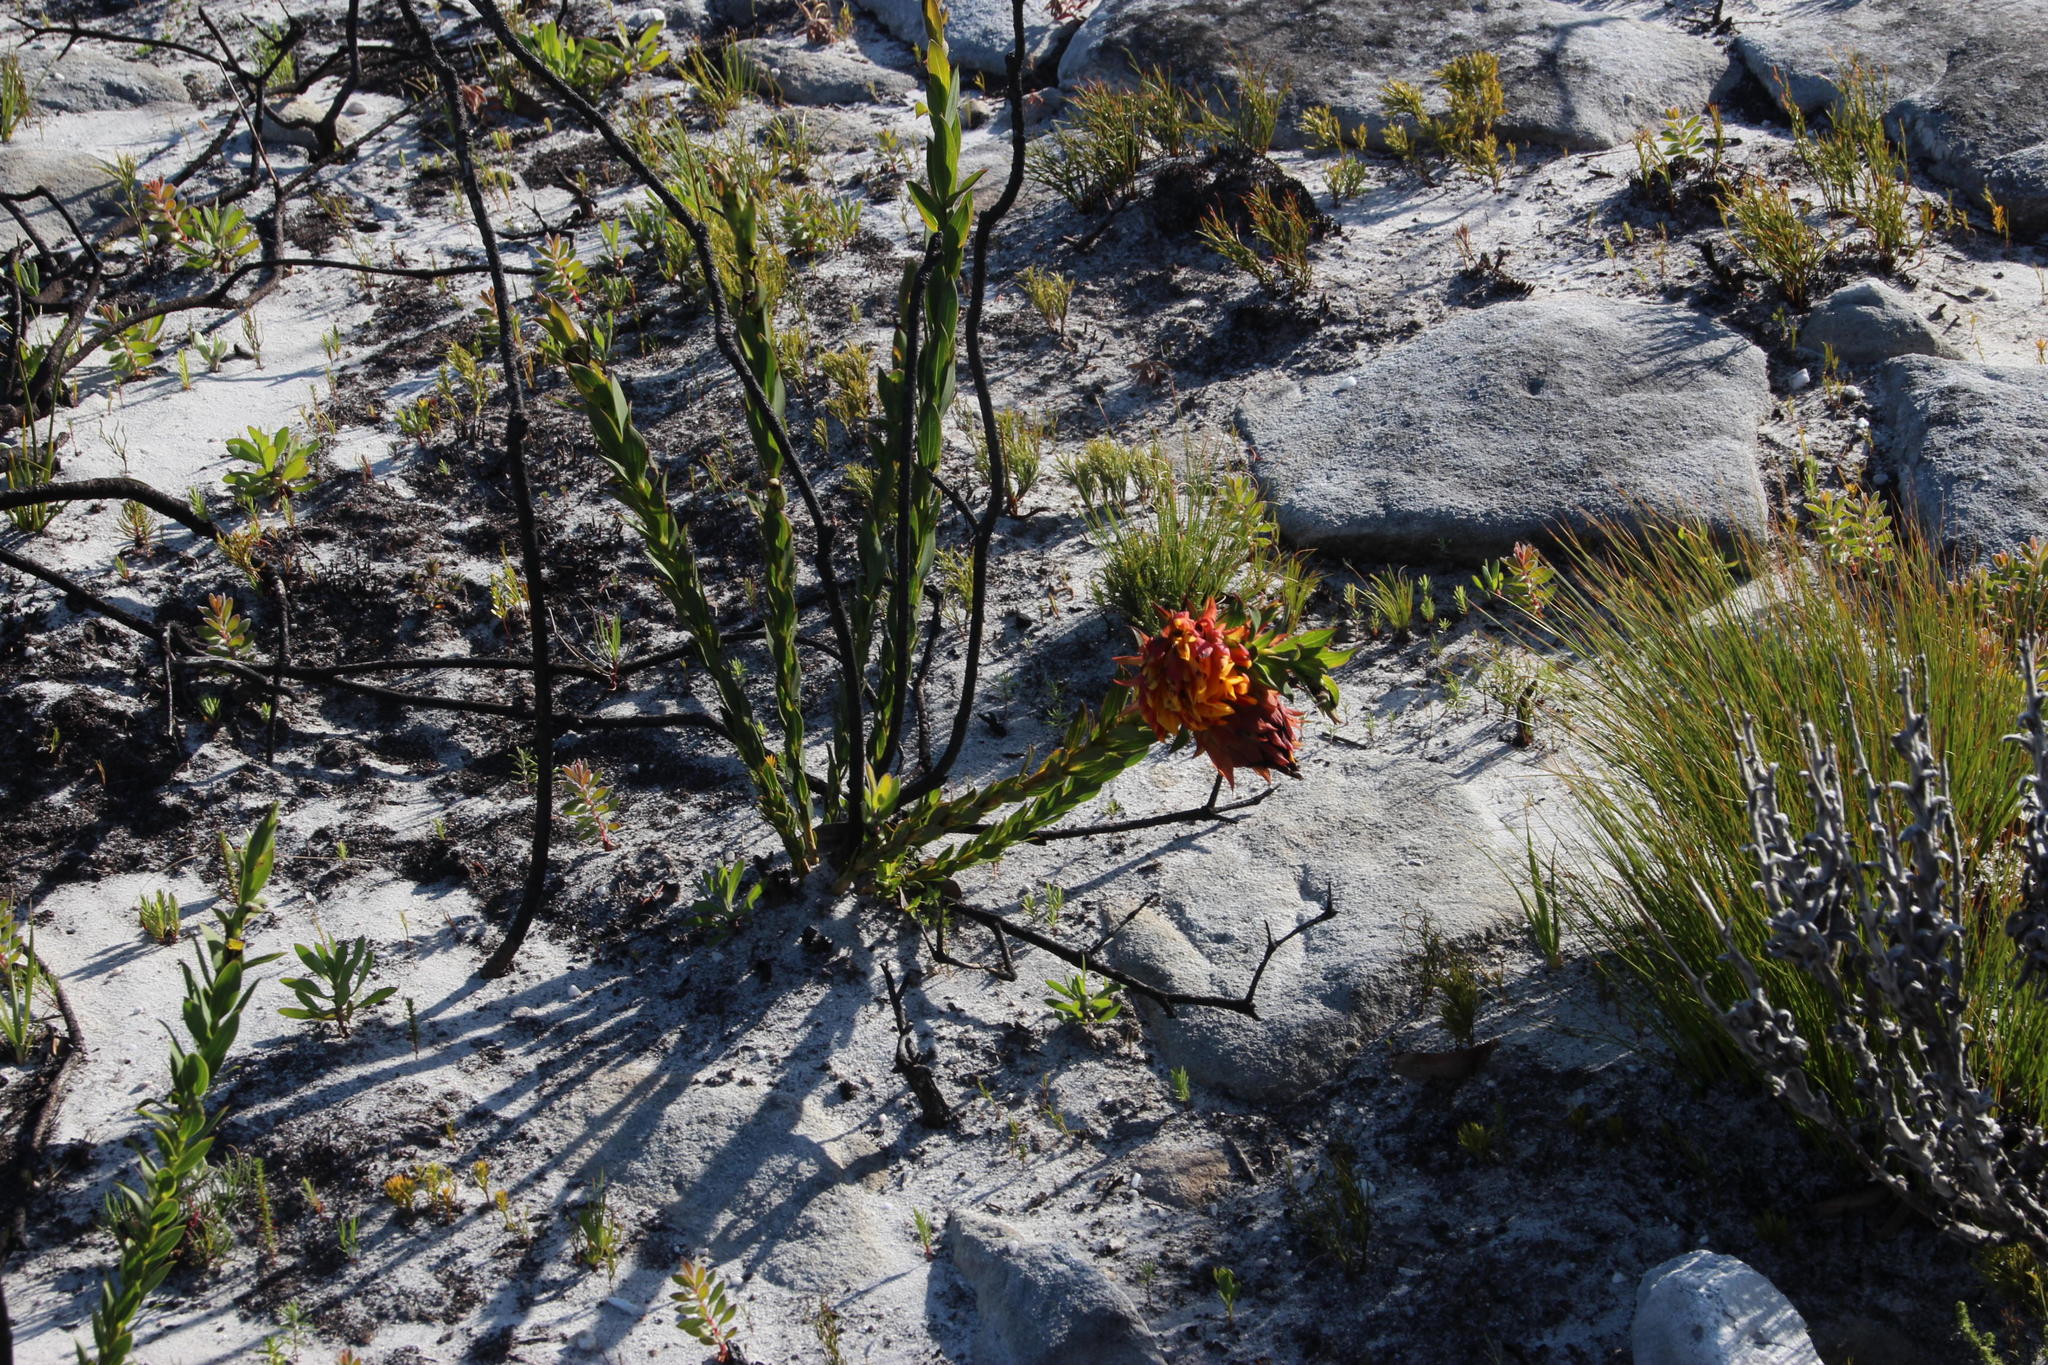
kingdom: Plantae
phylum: Tracheophyta
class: Magnoliopsida
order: Fabales
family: Fabaceae
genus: Liparia
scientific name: Liparia splendens
